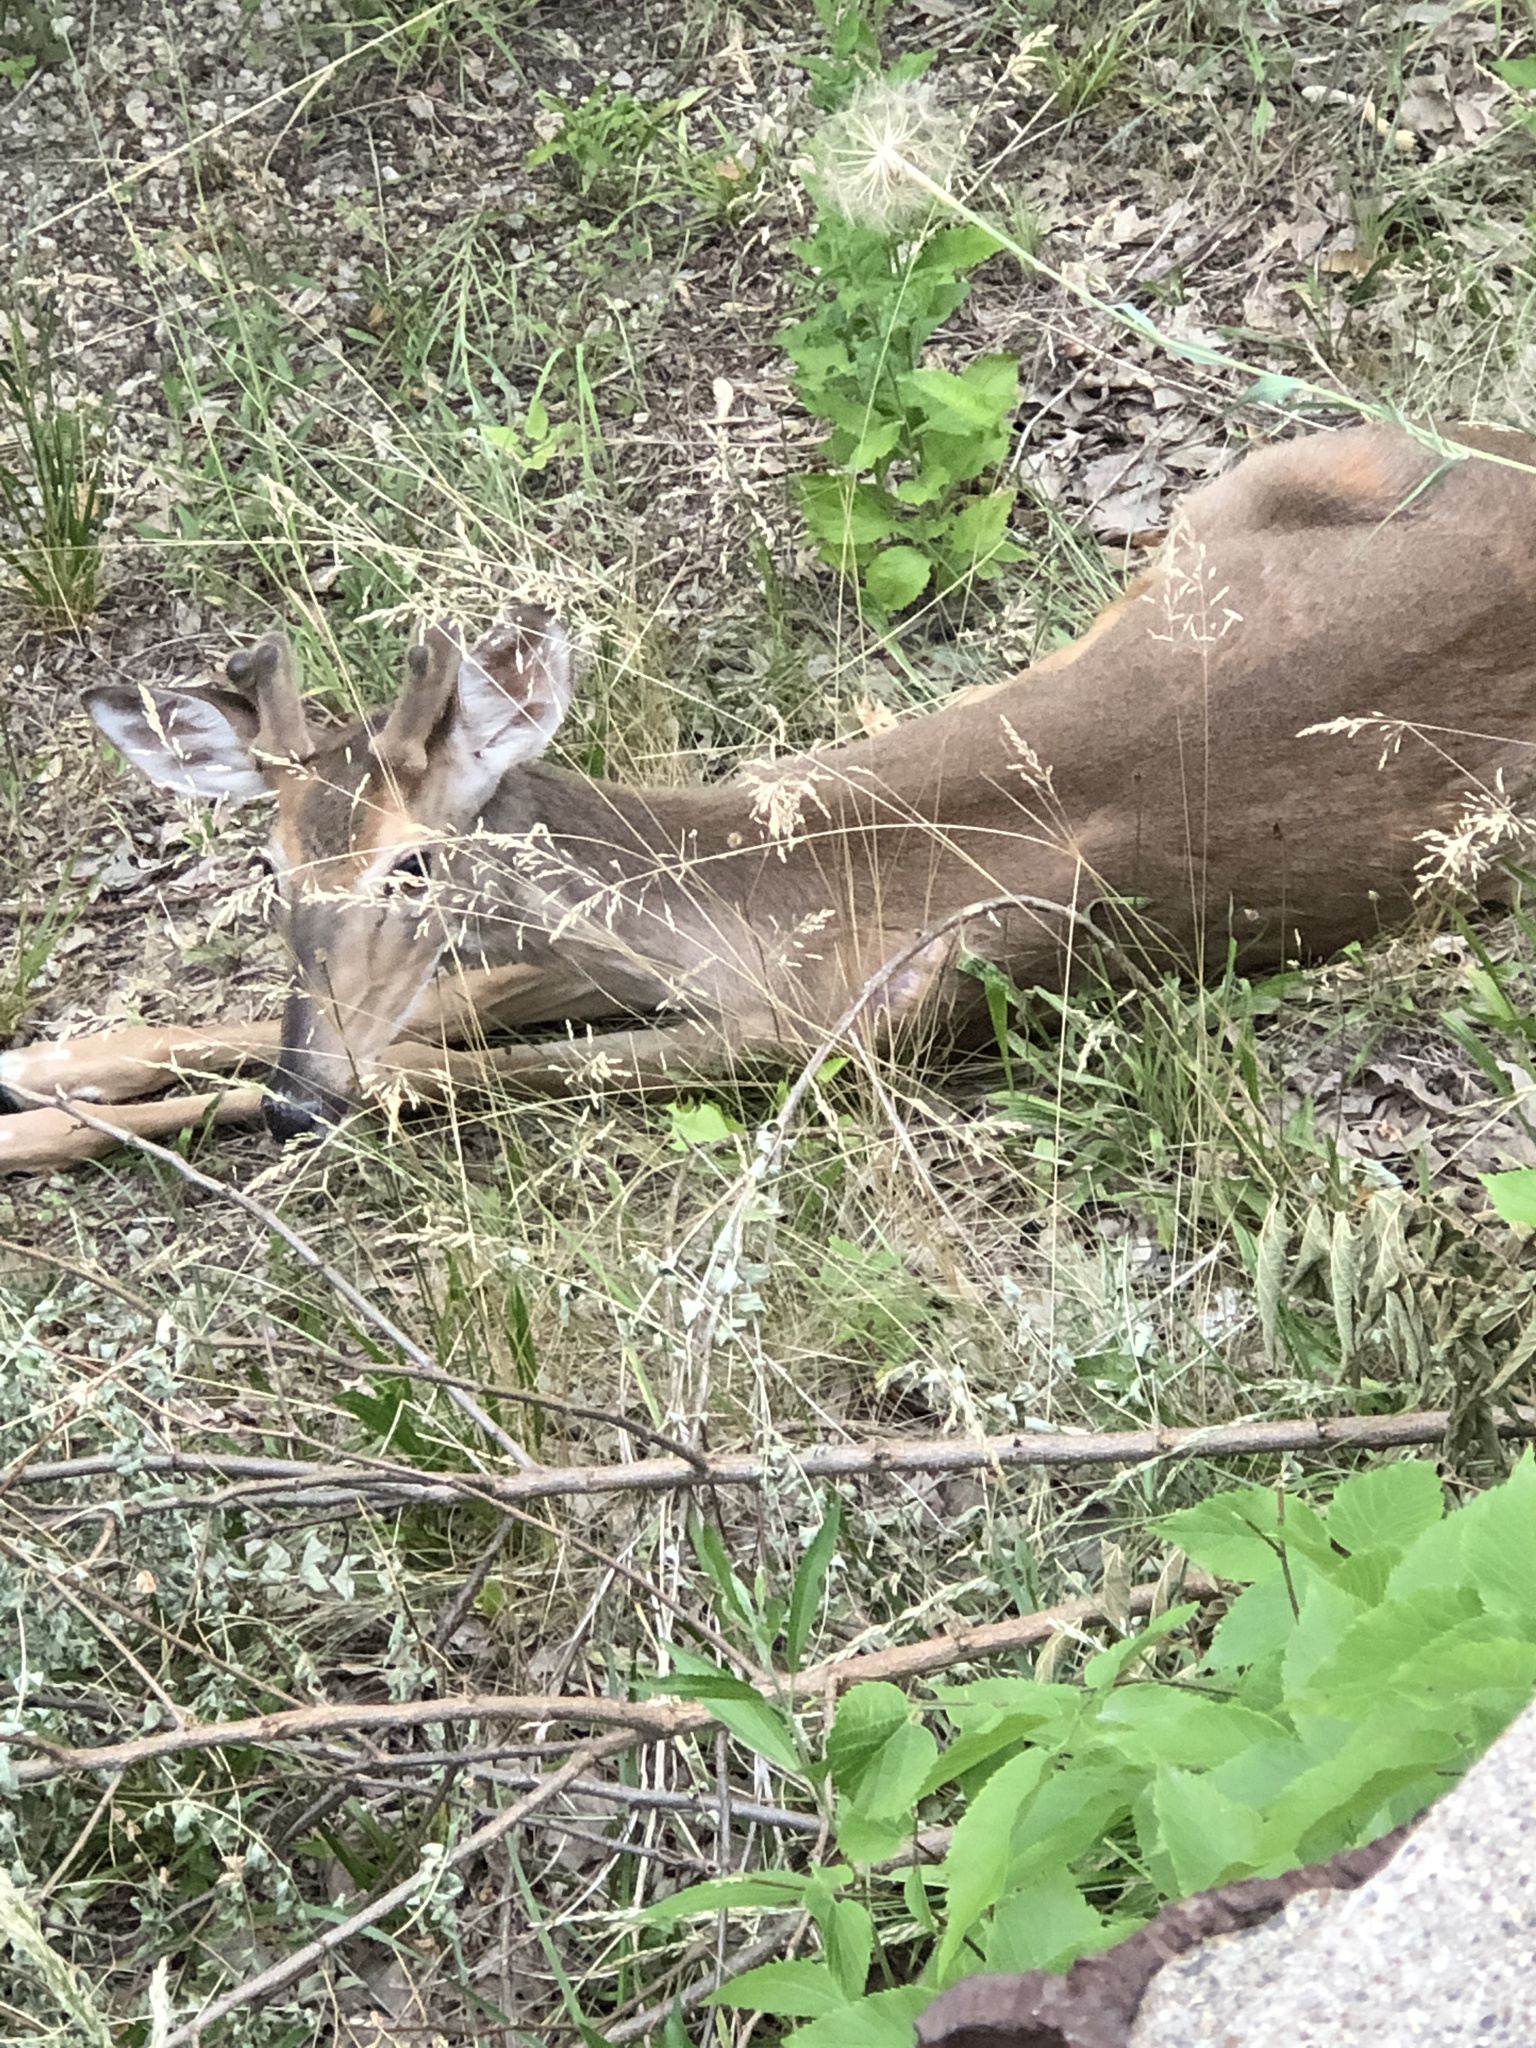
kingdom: Animalia
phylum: Chordata
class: Mammalia
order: Artiodactyla
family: Cervidae
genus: Odocoileus
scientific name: Odocoileus virginianus
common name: White-tailed deer
